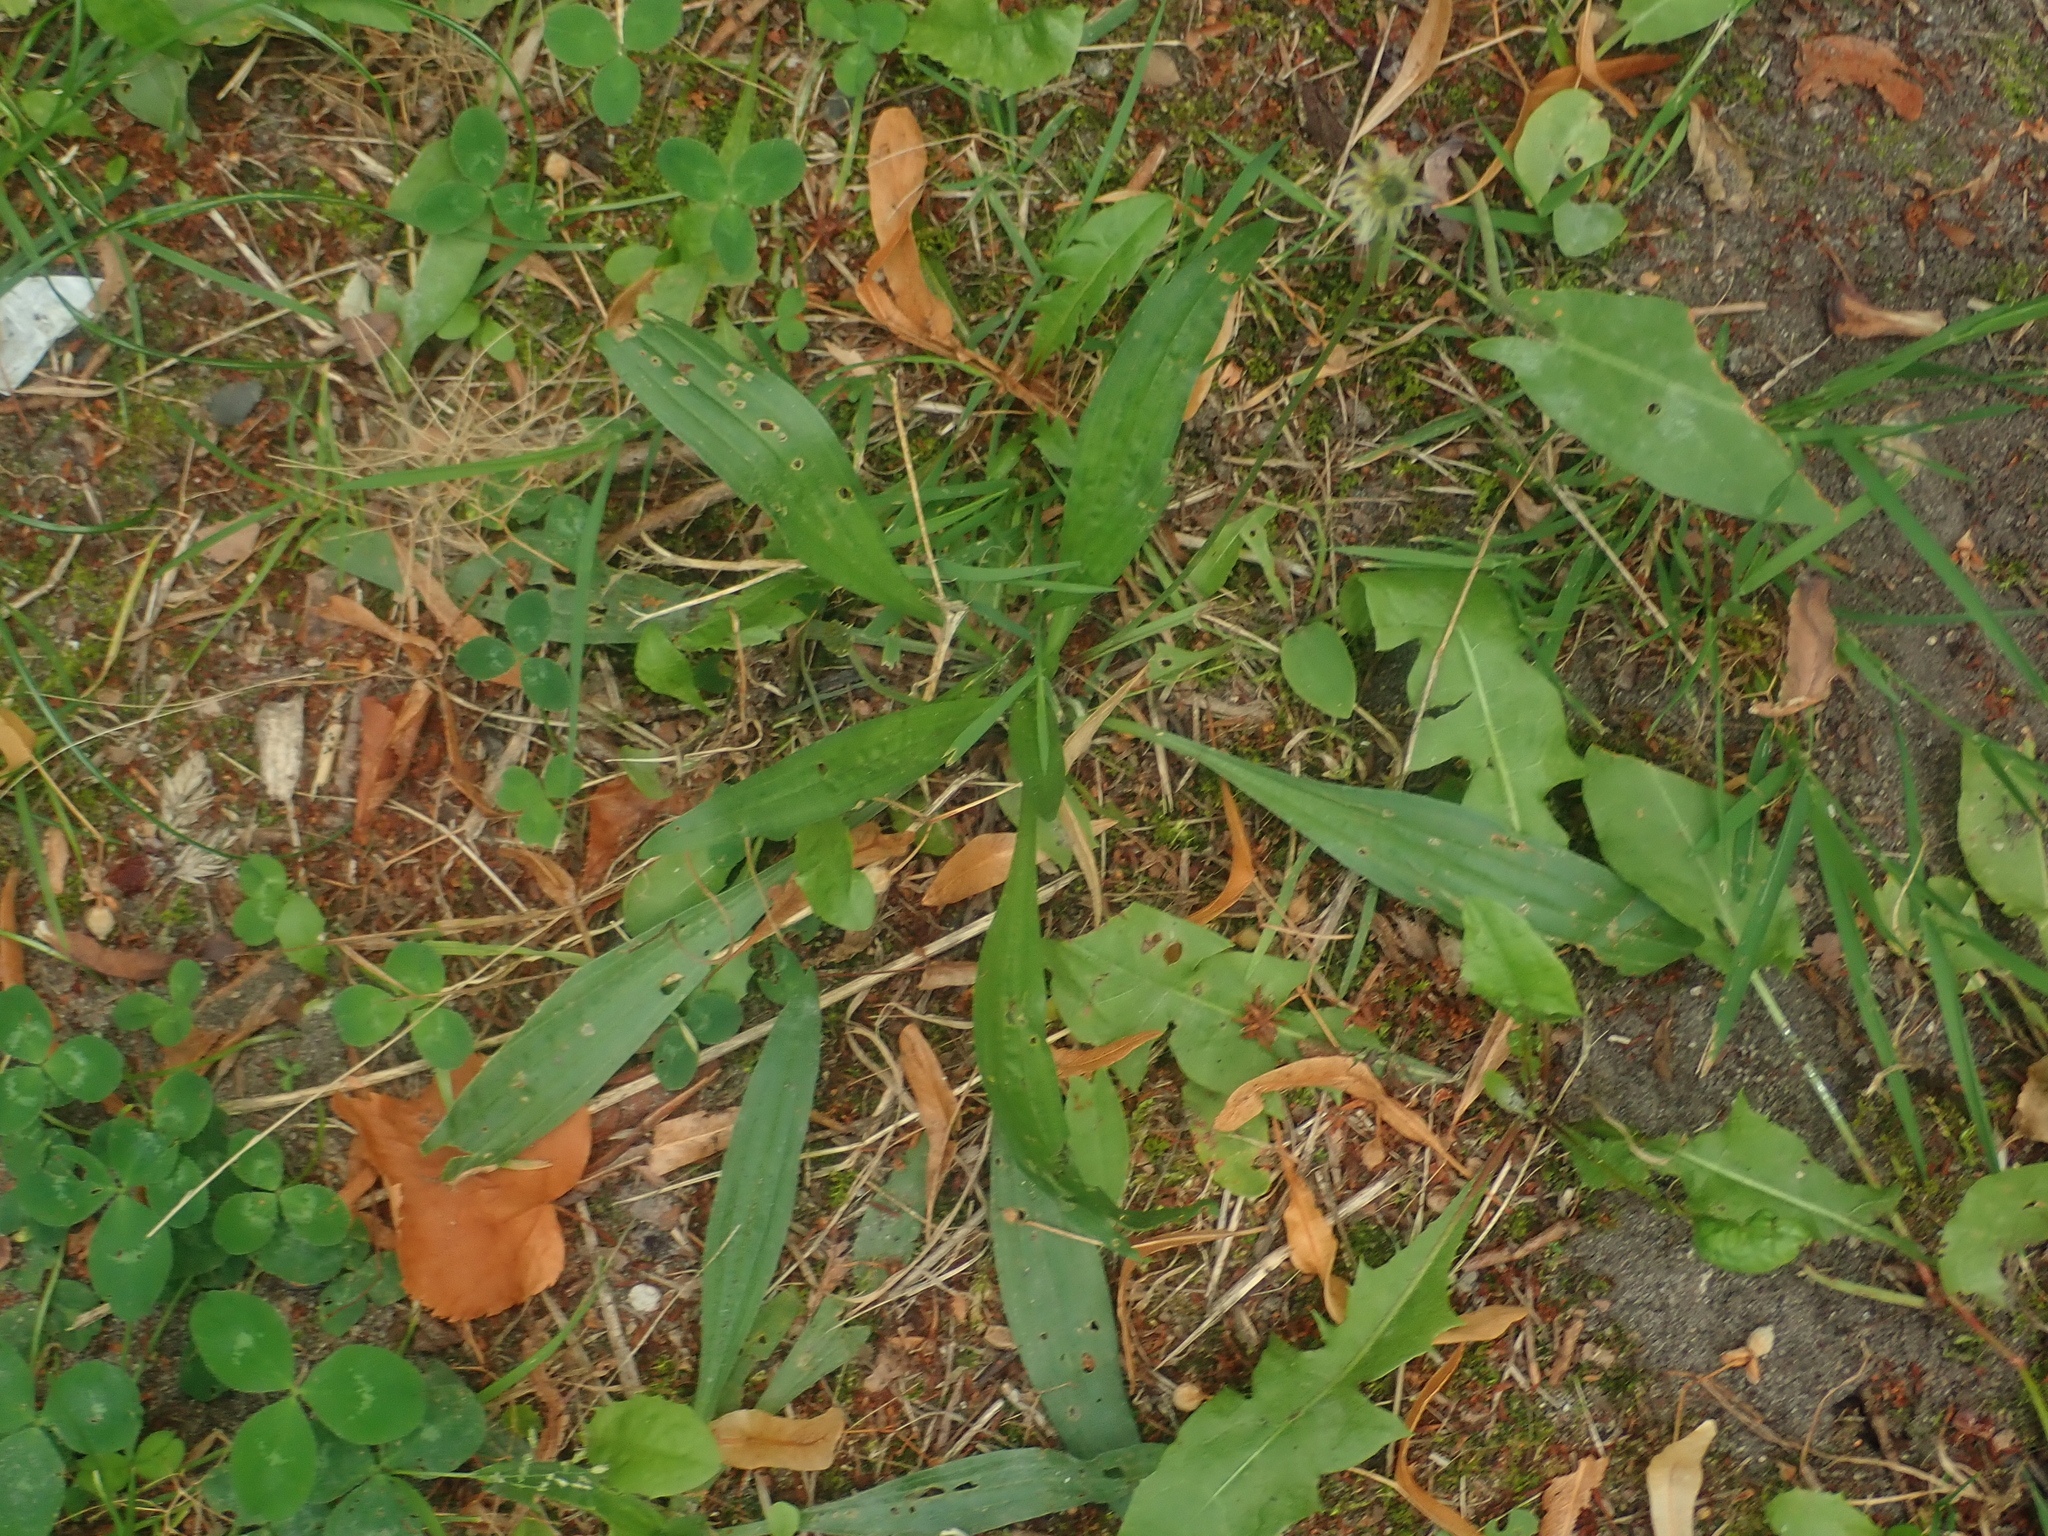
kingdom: Plantae
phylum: Tracheophyta
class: Magnoliopsida
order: Lamiales
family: Plantaginaceae
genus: Plantago
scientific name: Plantago lanceolata
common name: Ribwort plantain
